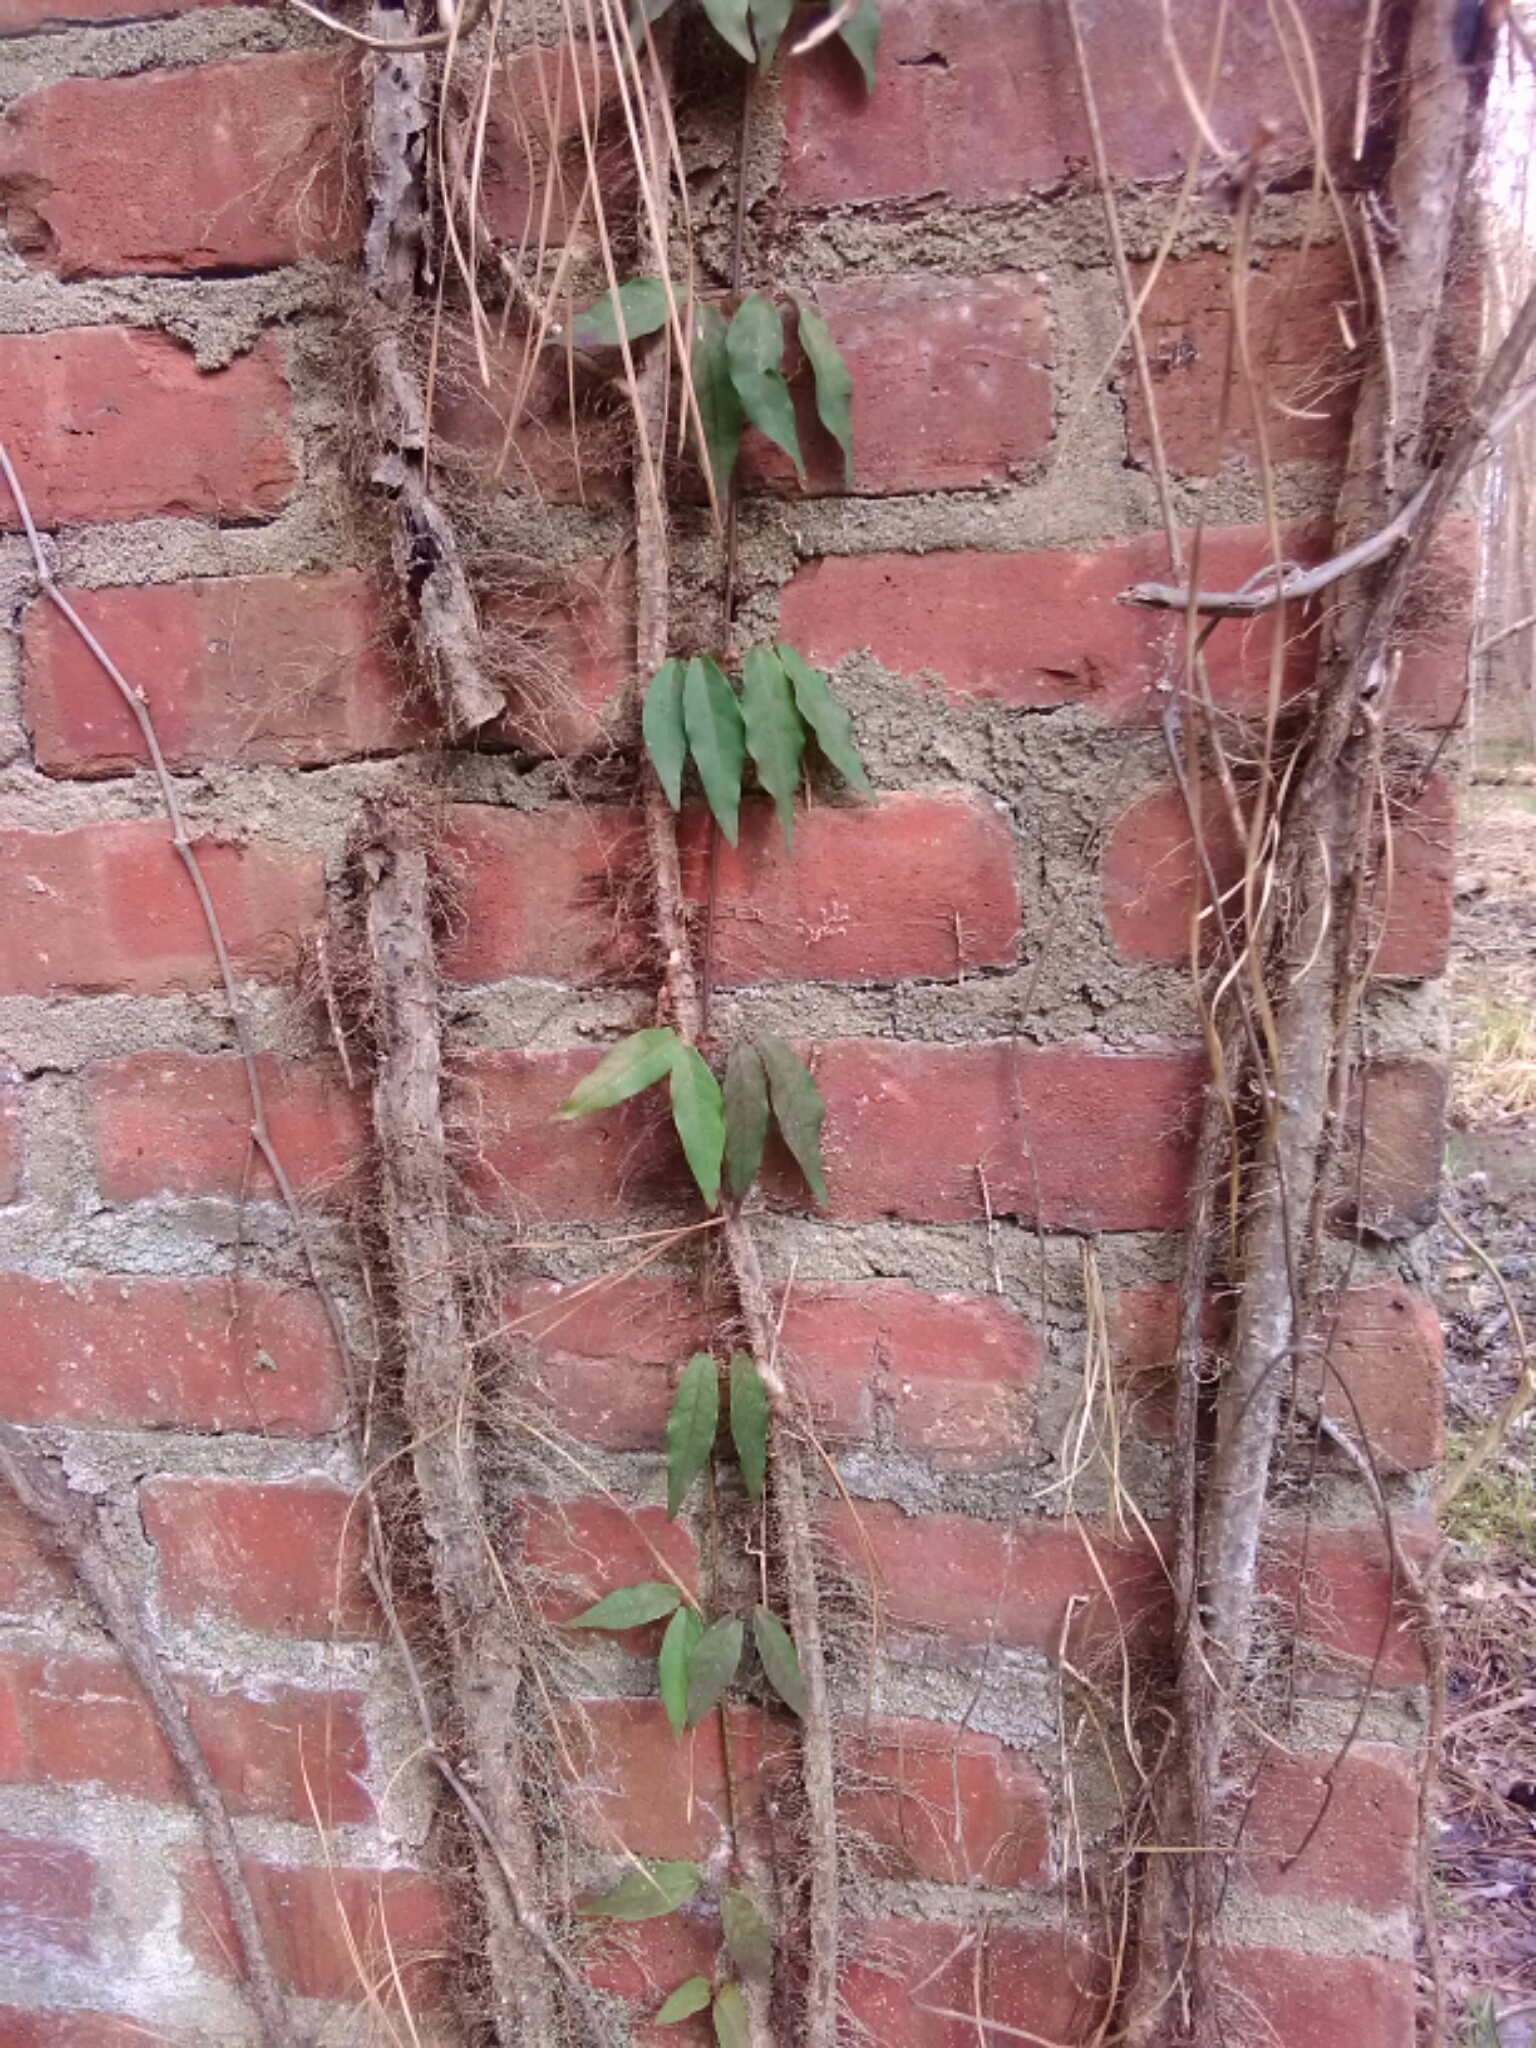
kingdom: Plantae
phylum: Tracheophyta
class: Magnoliopsida
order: Lamiales
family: Bignoniaceae
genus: Bignonia
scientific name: Bignonia capreolata
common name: Crossvine
